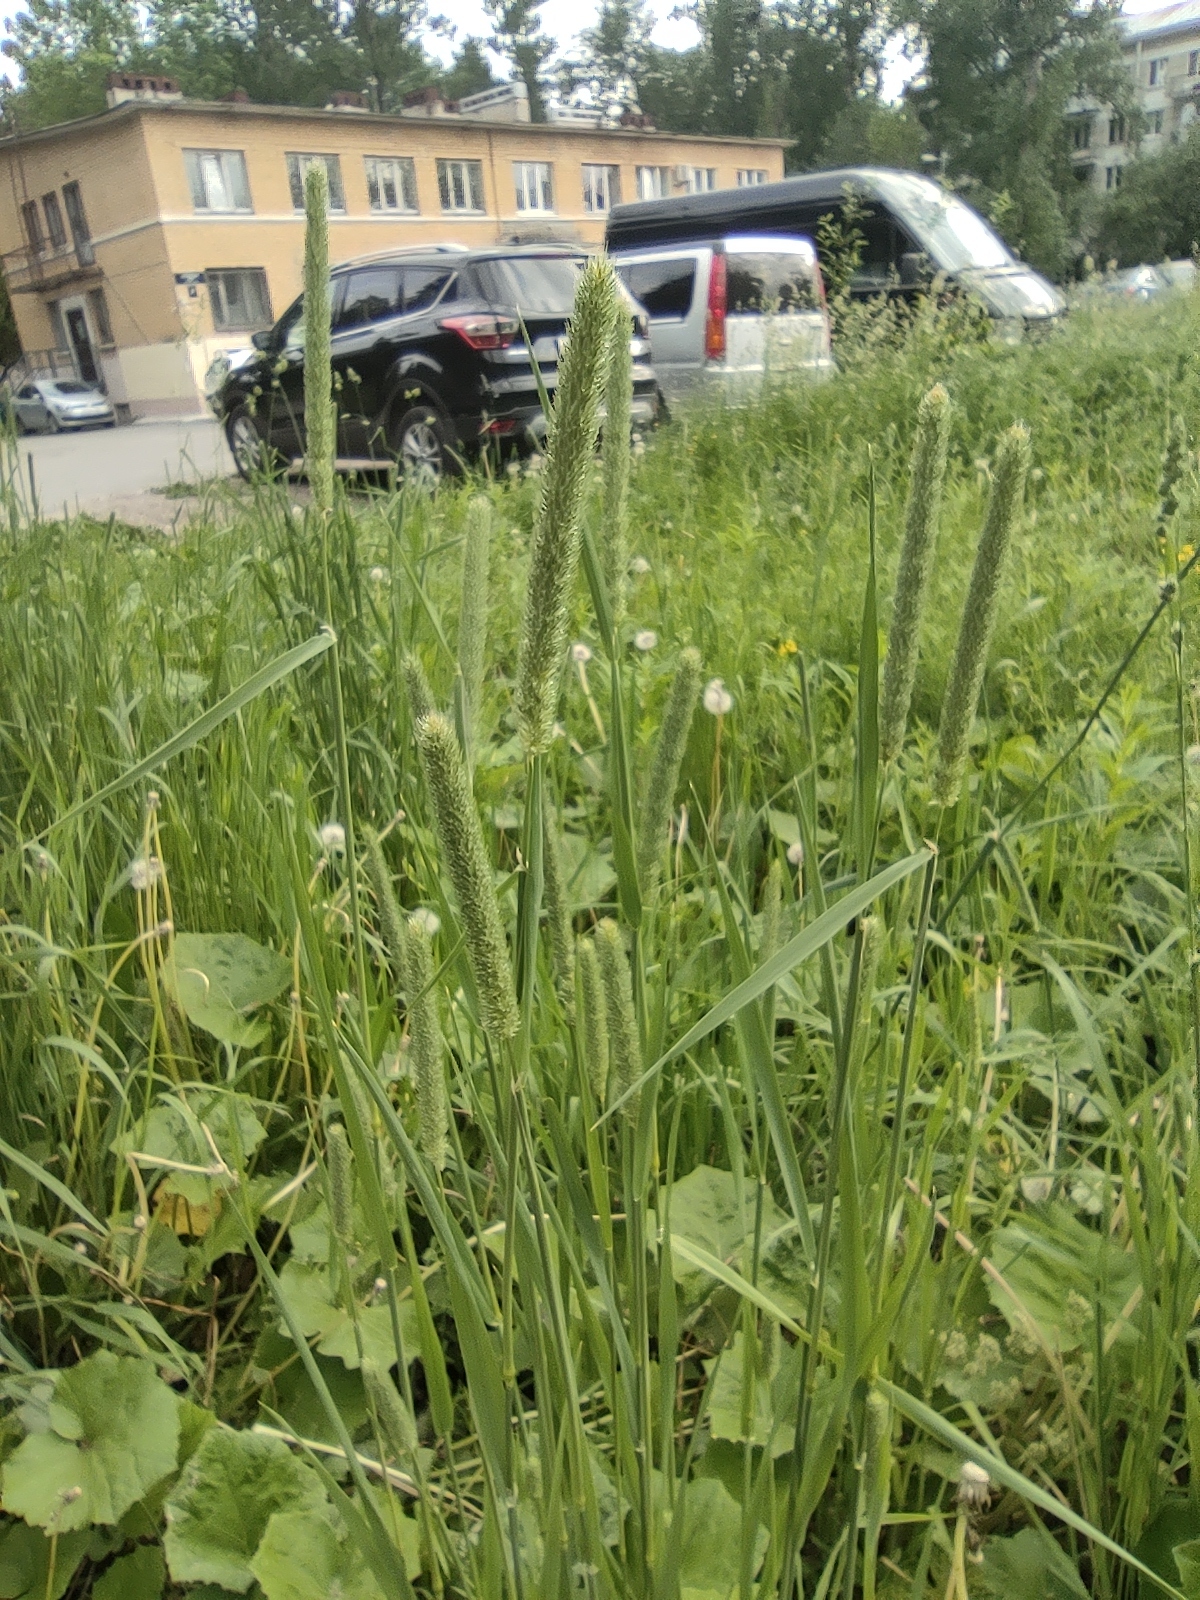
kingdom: Plantae
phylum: Tracheophyta
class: Liliopsida
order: Poales
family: Poaceae
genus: Phleum
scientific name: Phleum pratense
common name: Timothy grass
